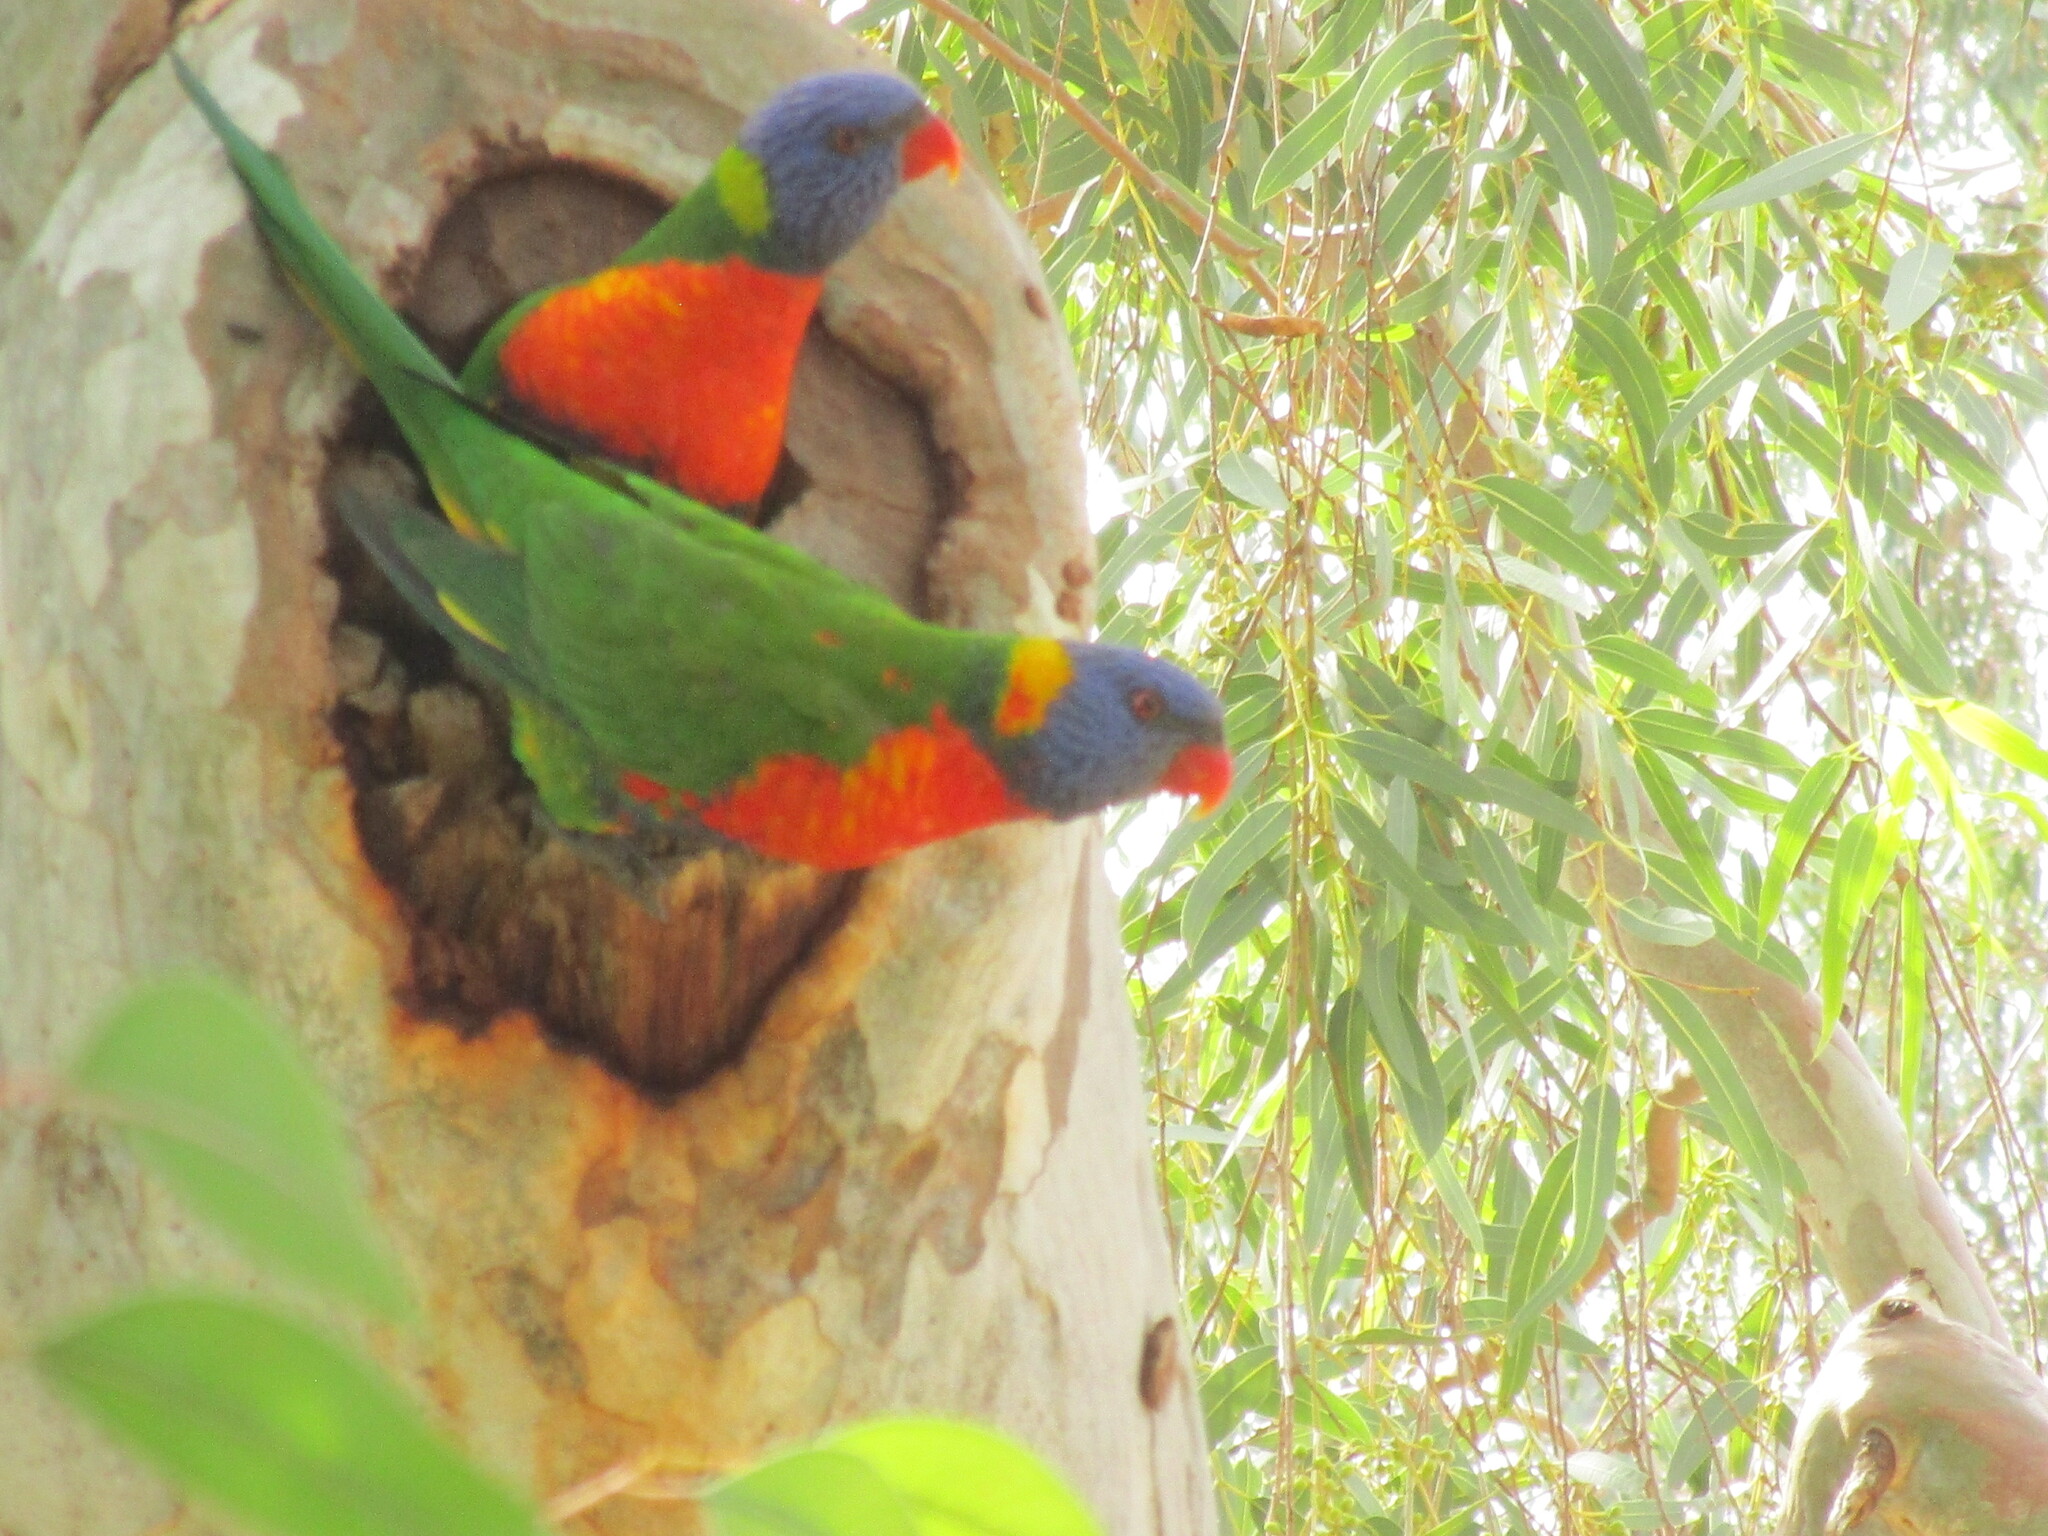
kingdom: Animalia
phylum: Chordata
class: Aves
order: Psittaciformes
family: Psittacidae
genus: Trichoglossus
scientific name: Trichoglossus haematodus
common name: Coconut lorikeet
